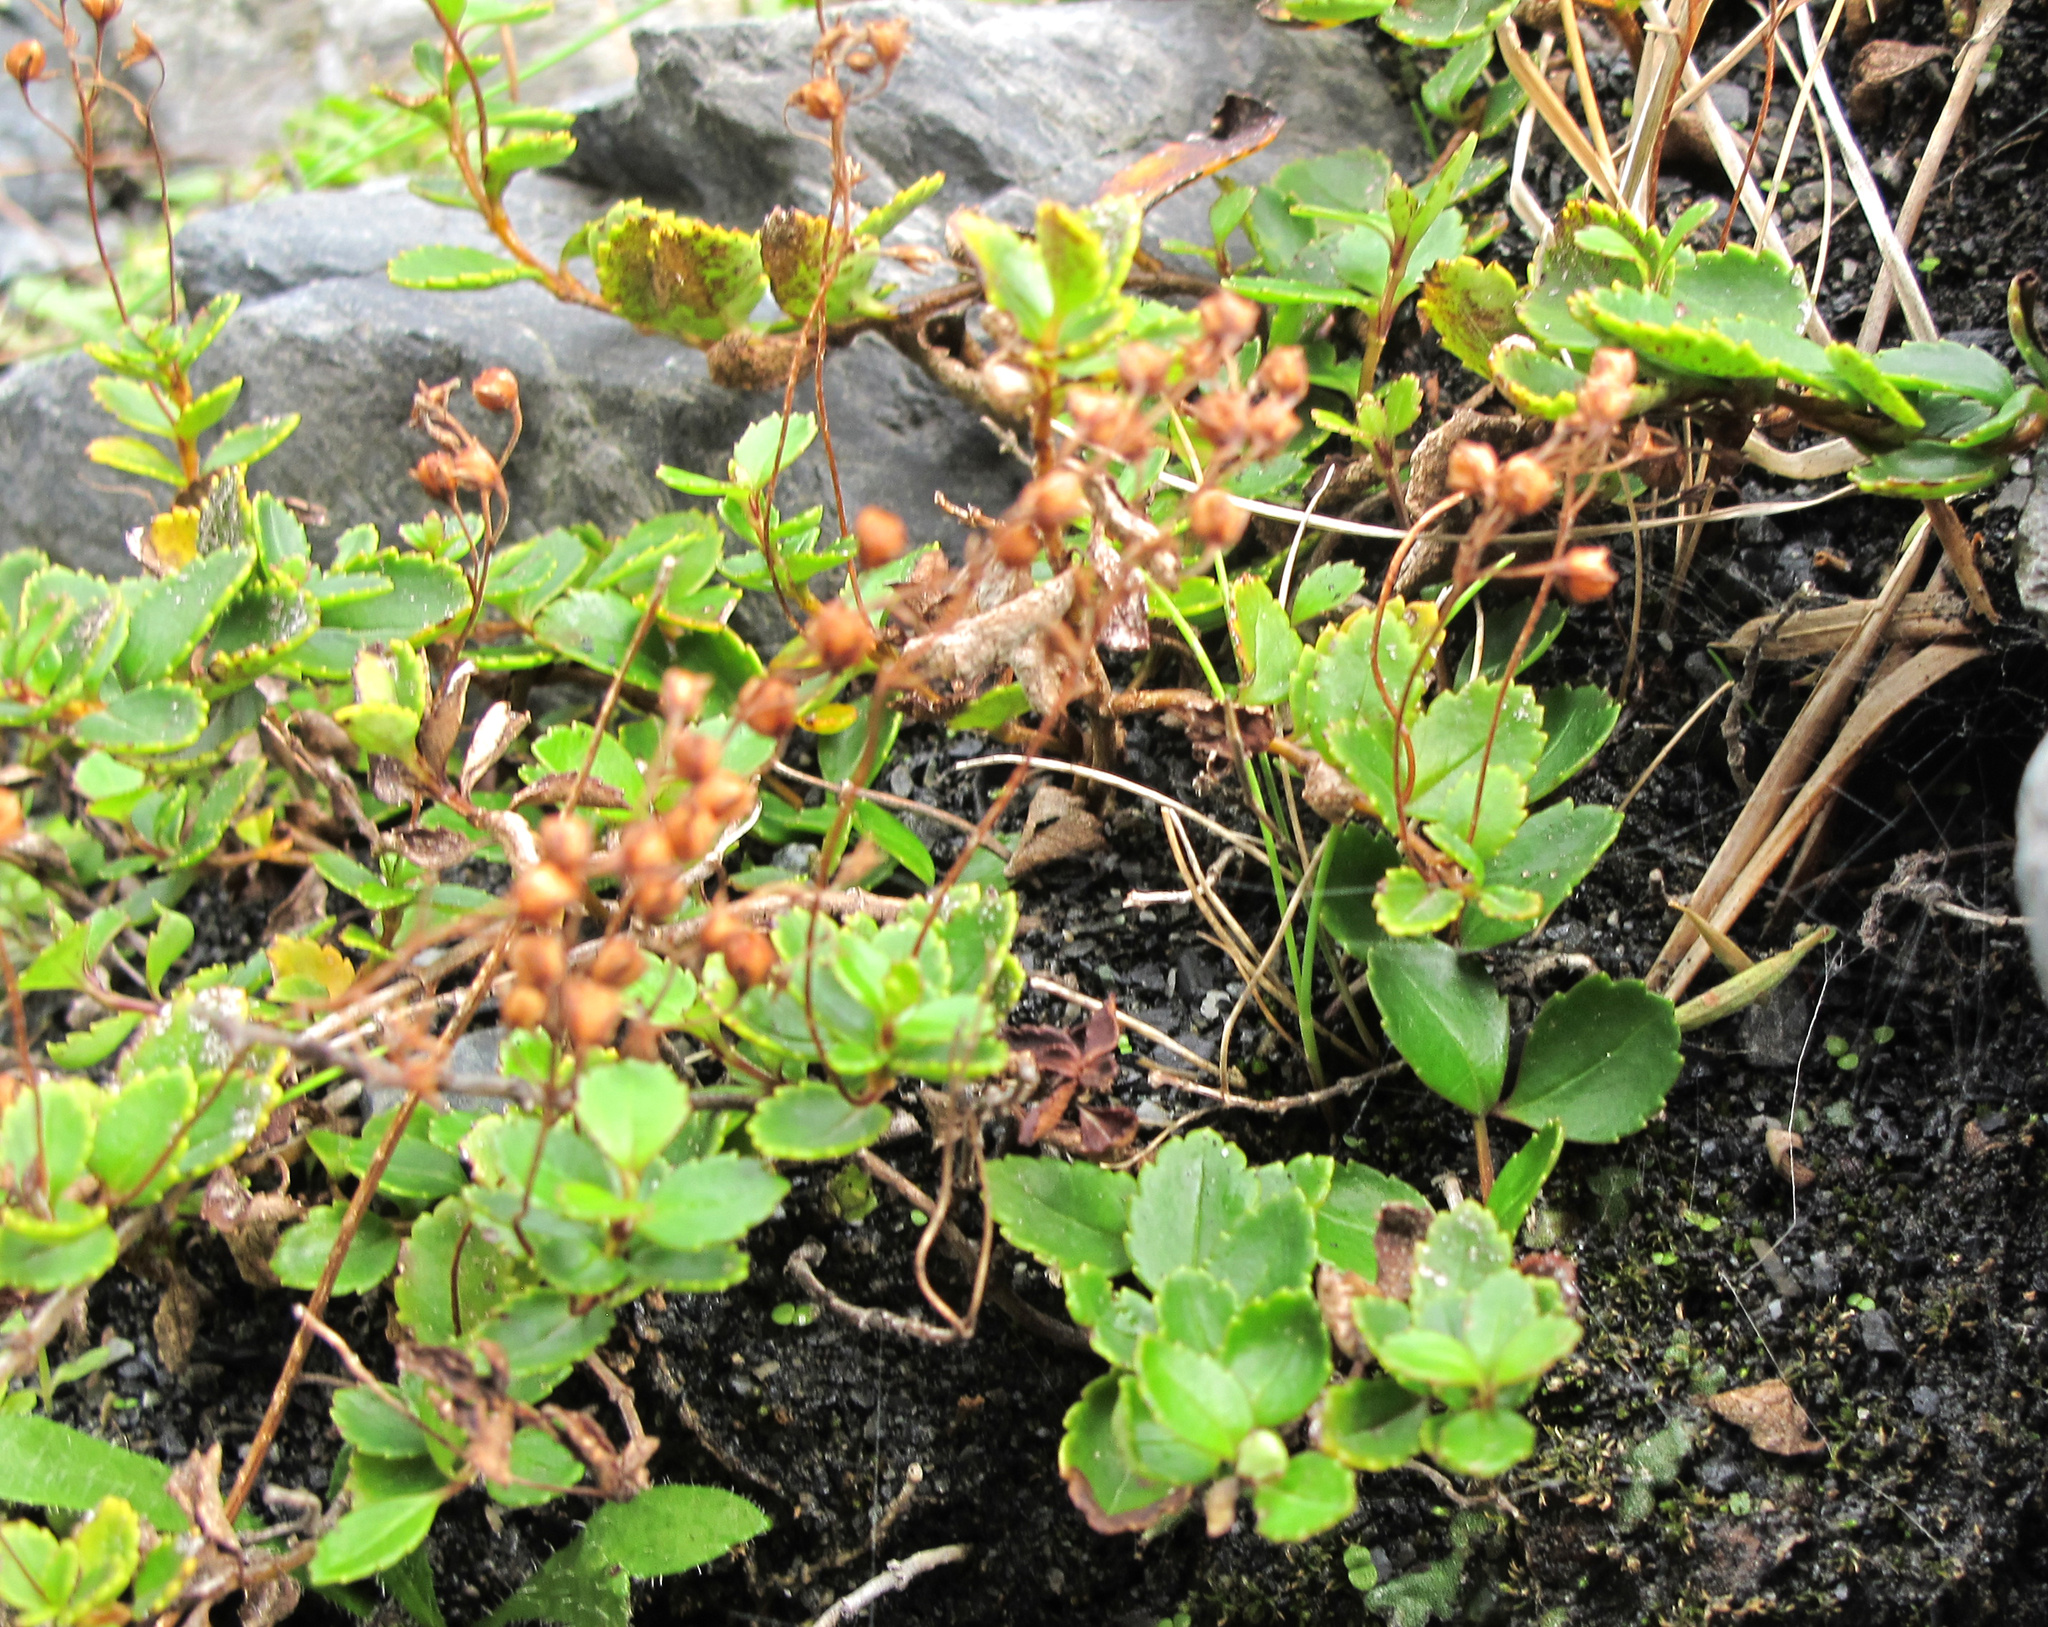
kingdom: Plantae
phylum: Tracheophyta
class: Magnoliopsida
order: Lamiales
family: Plantaginaceae
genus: Veronica
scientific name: Veronica lanceolata
